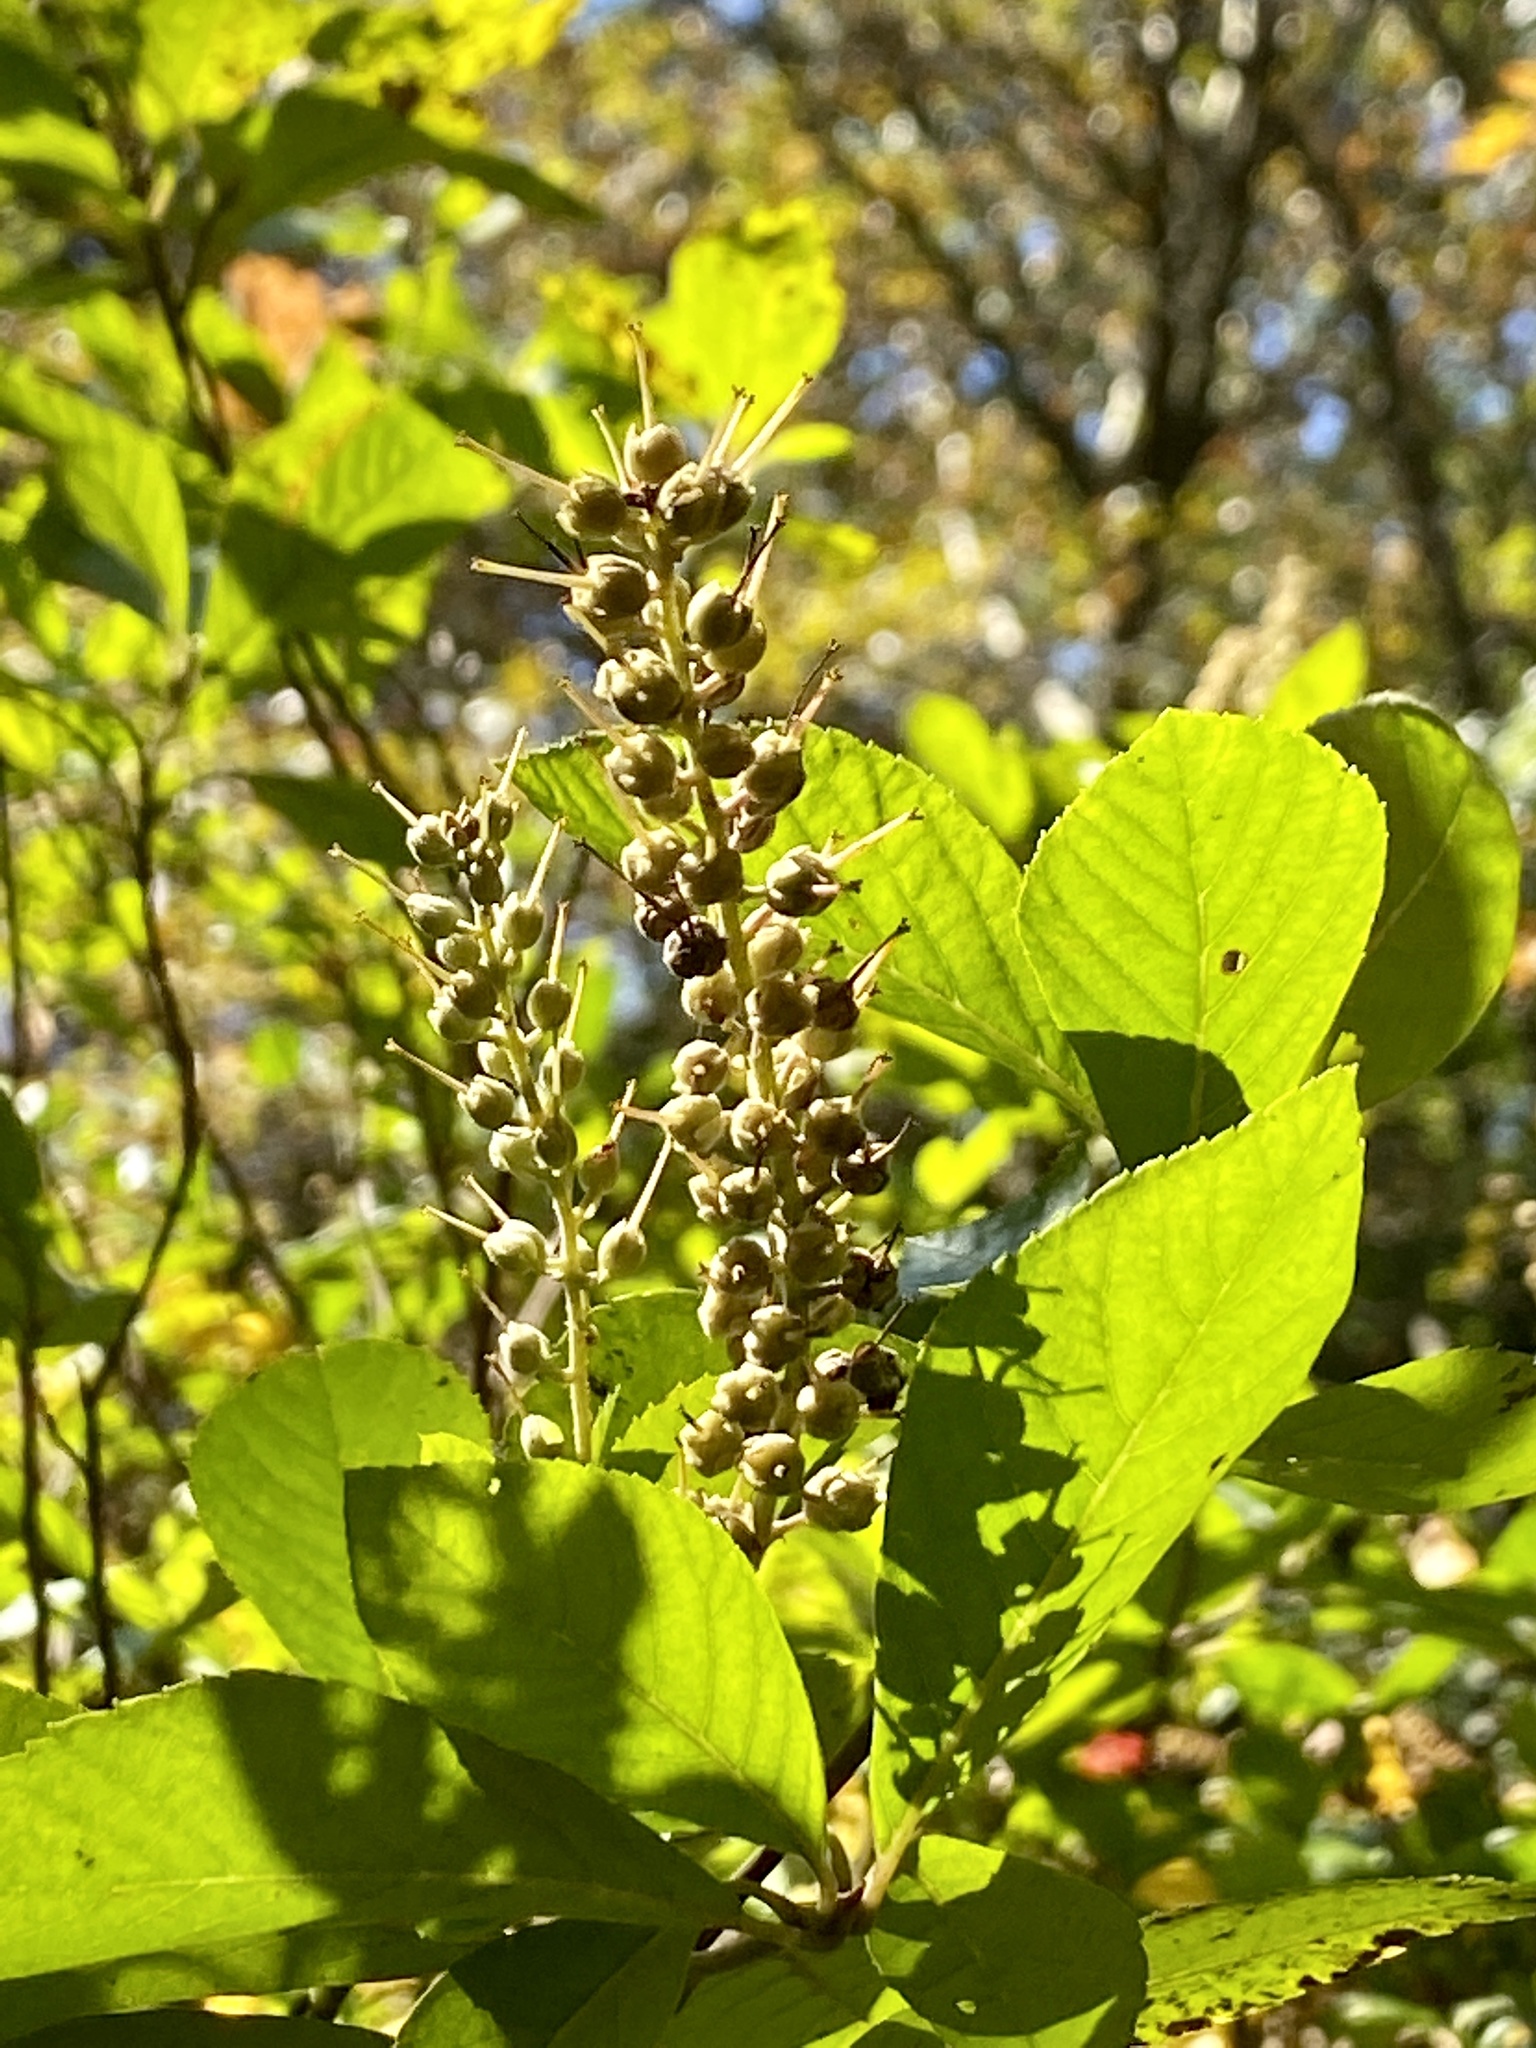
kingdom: Plantae
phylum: Tracheophyta
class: Magnoliopsida
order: Ericales
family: Clethraceae
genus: Clethra
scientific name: Clethra alnifolia
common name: Sweet pepperbush
